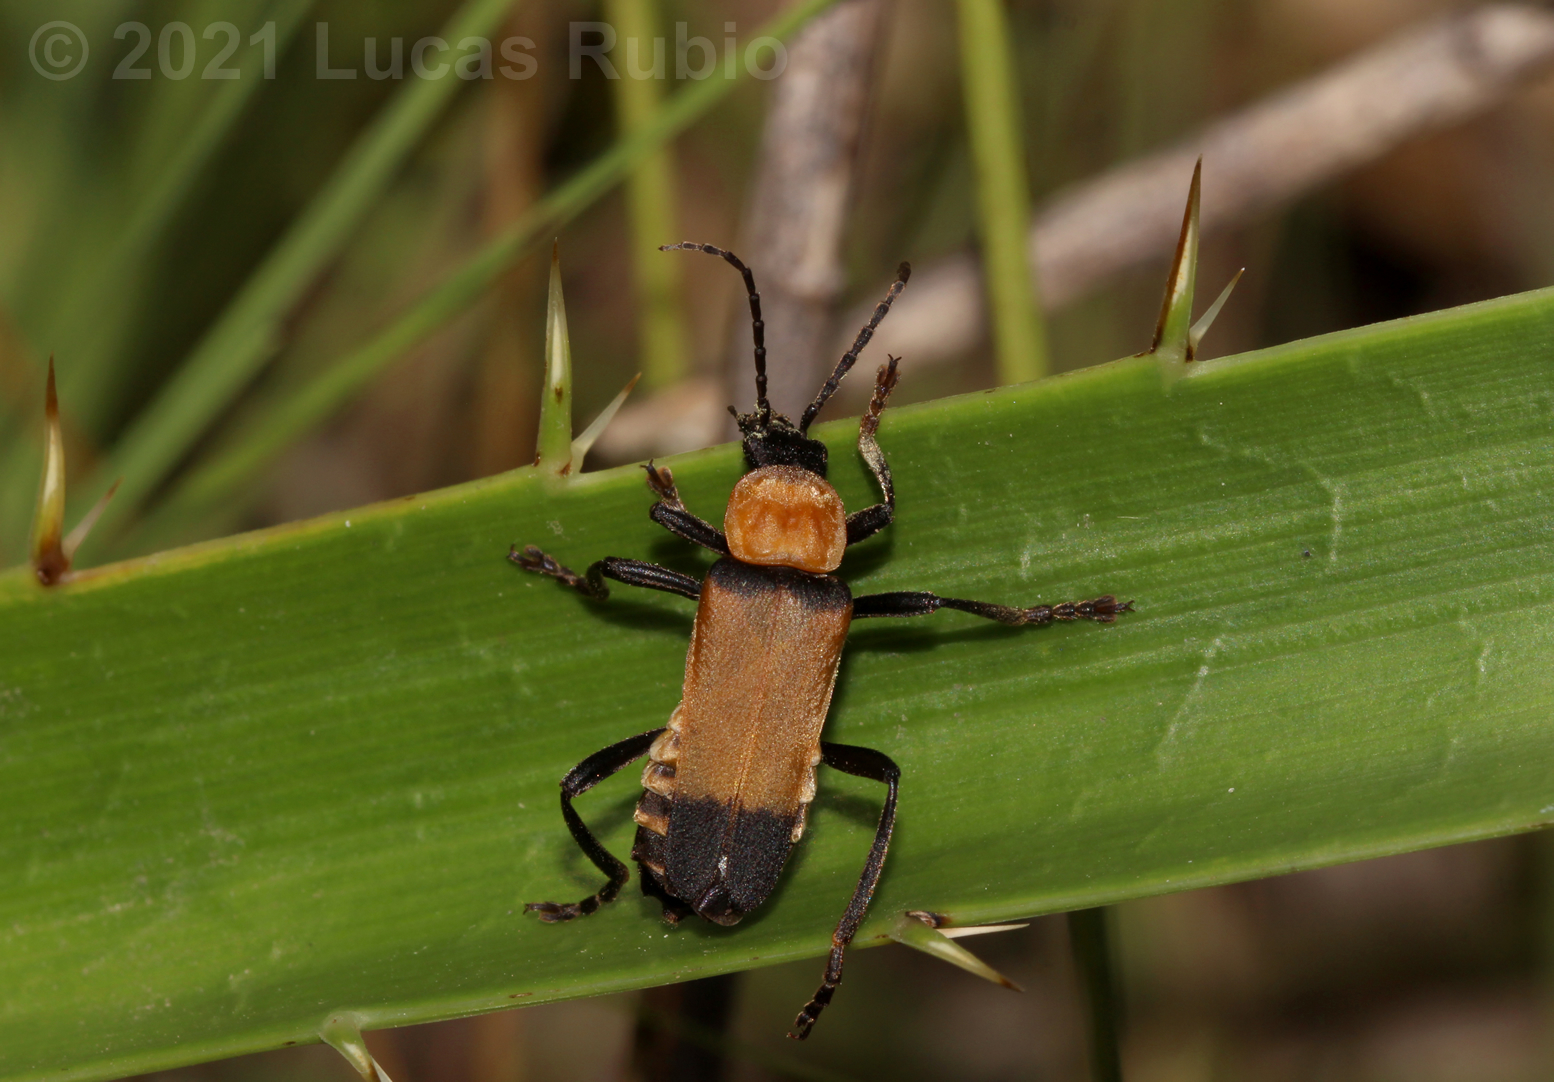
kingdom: Animalia
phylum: Arthropoda
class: Insecta
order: Coleoptera
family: Cantharidae
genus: Chauliognathus
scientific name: Chauliognathus
